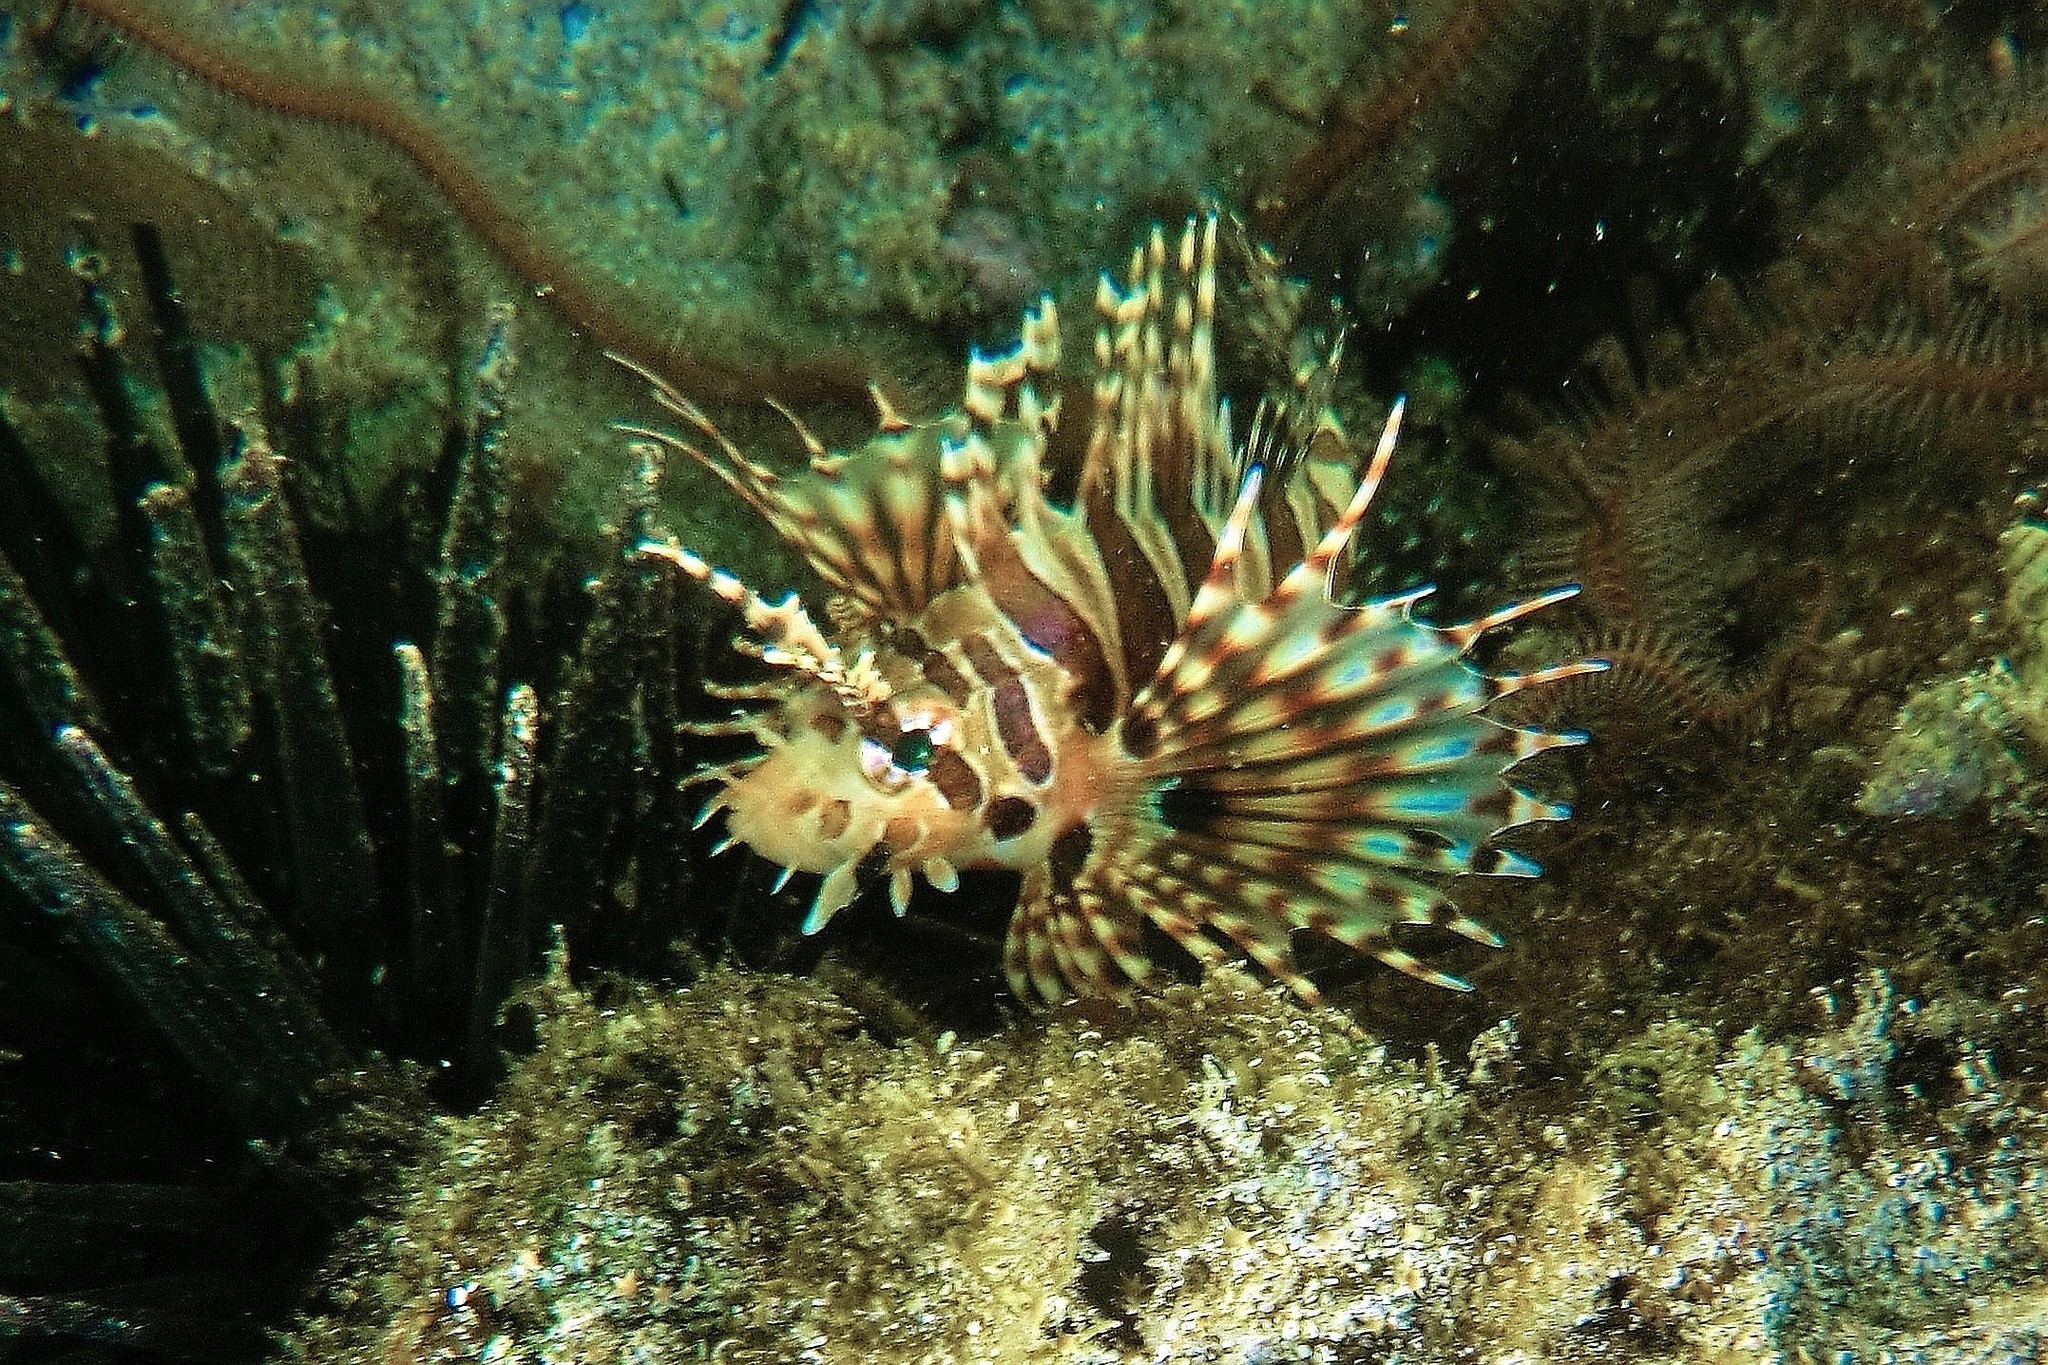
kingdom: Animalia
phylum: Chordata
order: Scorpaeniformes
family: Scorpaenidae
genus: Dendrochirus
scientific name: Dendrochirus zebra
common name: Zebra lionfish
